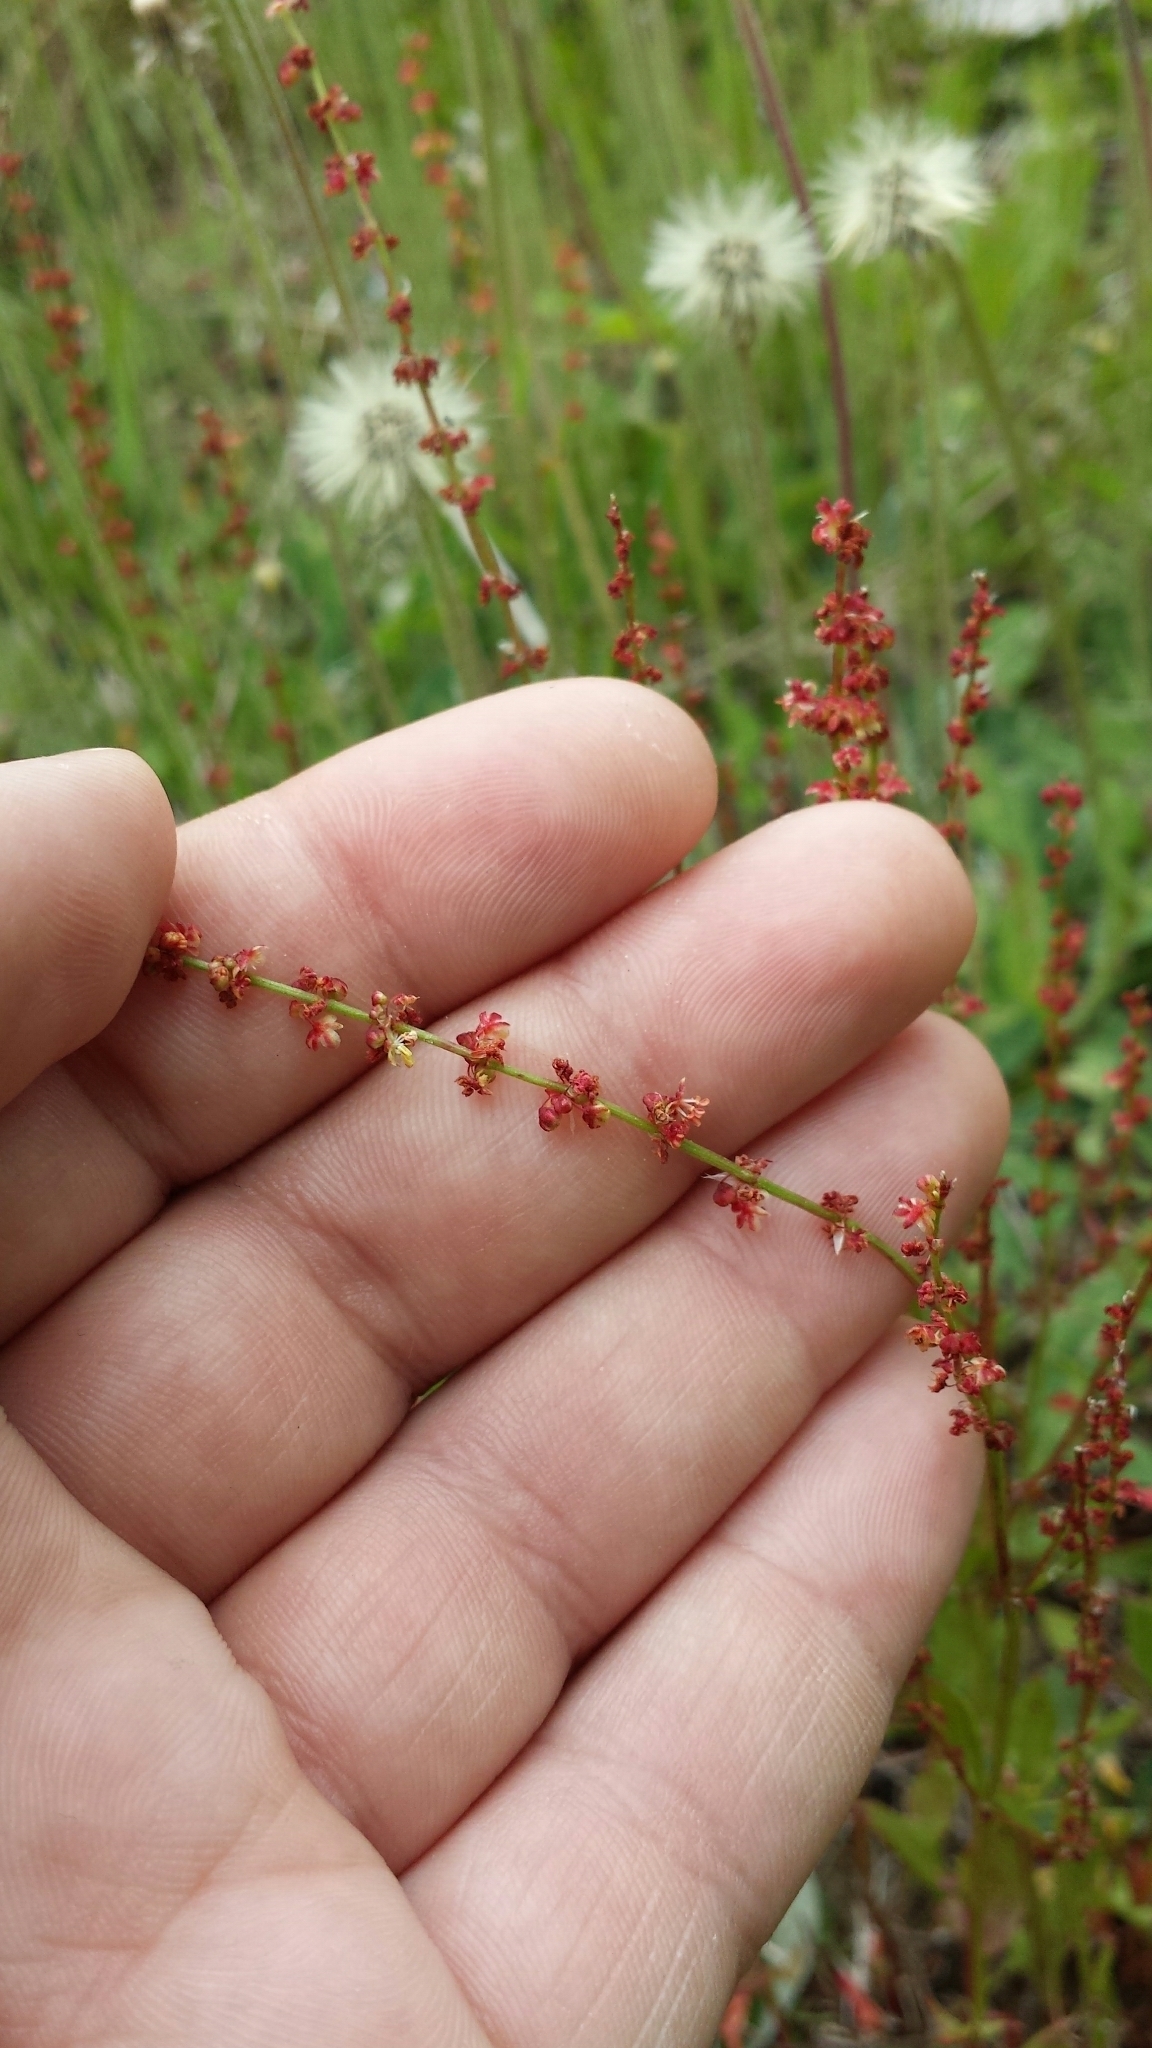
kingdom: Plantae
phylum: Tracheophyta
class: Magnoliopsida
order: Caryophyllales
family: Polygonaceae
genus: Rumex
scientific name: Rumex acetosella
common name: Common sheep sorrel
